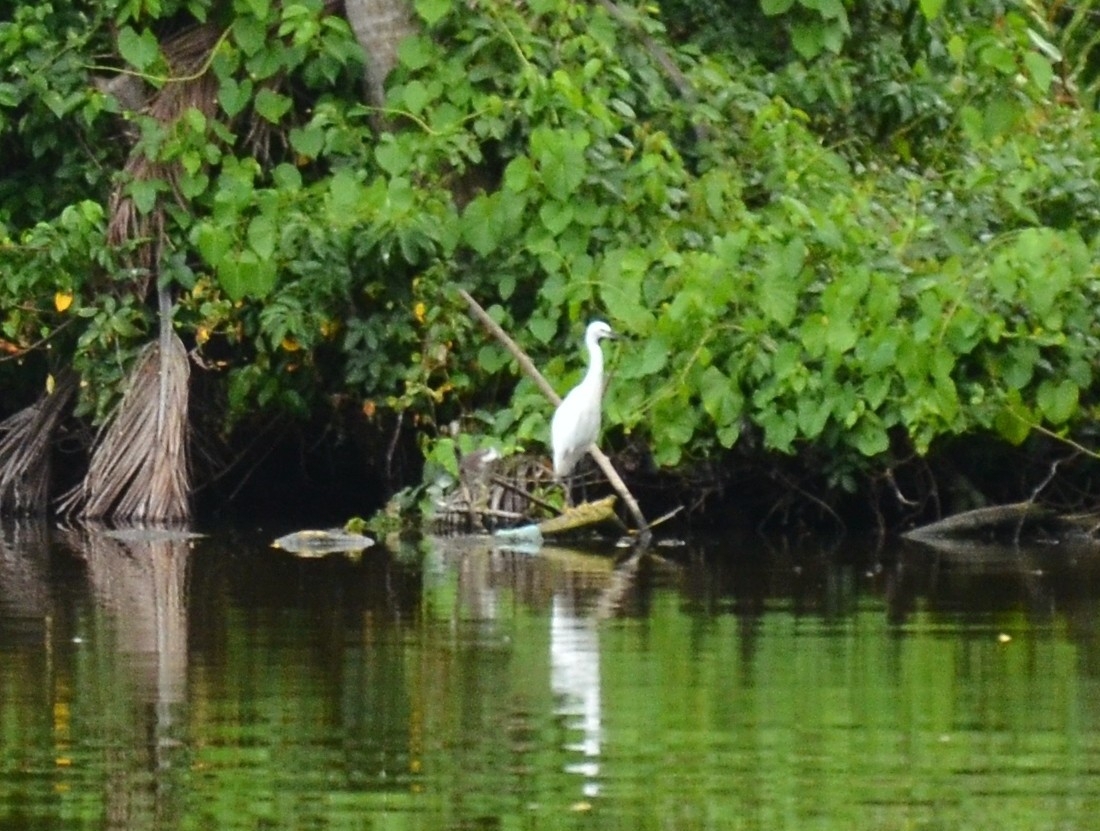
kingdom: Animalia
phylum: Chordata
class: Aves
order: Pelecaniformes
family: Ardeidae
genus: Egretta
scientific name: Egretta garzetta
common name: Little egret
